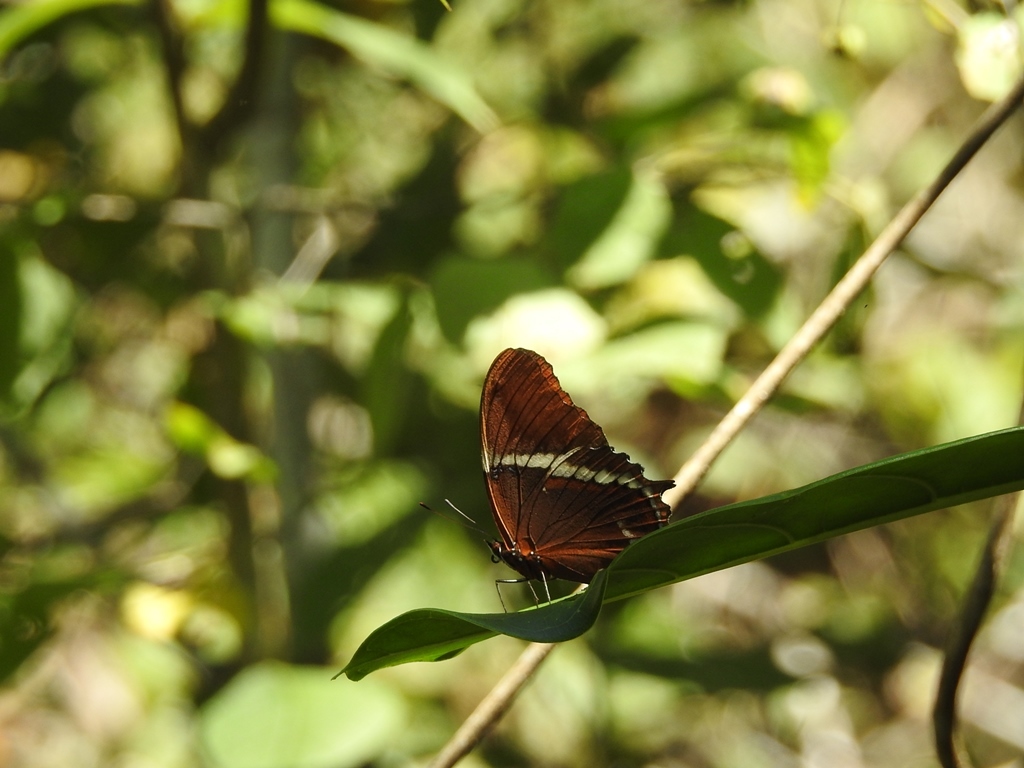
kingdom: Animalia
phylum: Arthropoda
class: Insecta
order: Lepidoptera
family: Nymphalidae
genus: Siproeta
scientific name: Siproeta epaphus
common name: Rusty-tipped page
